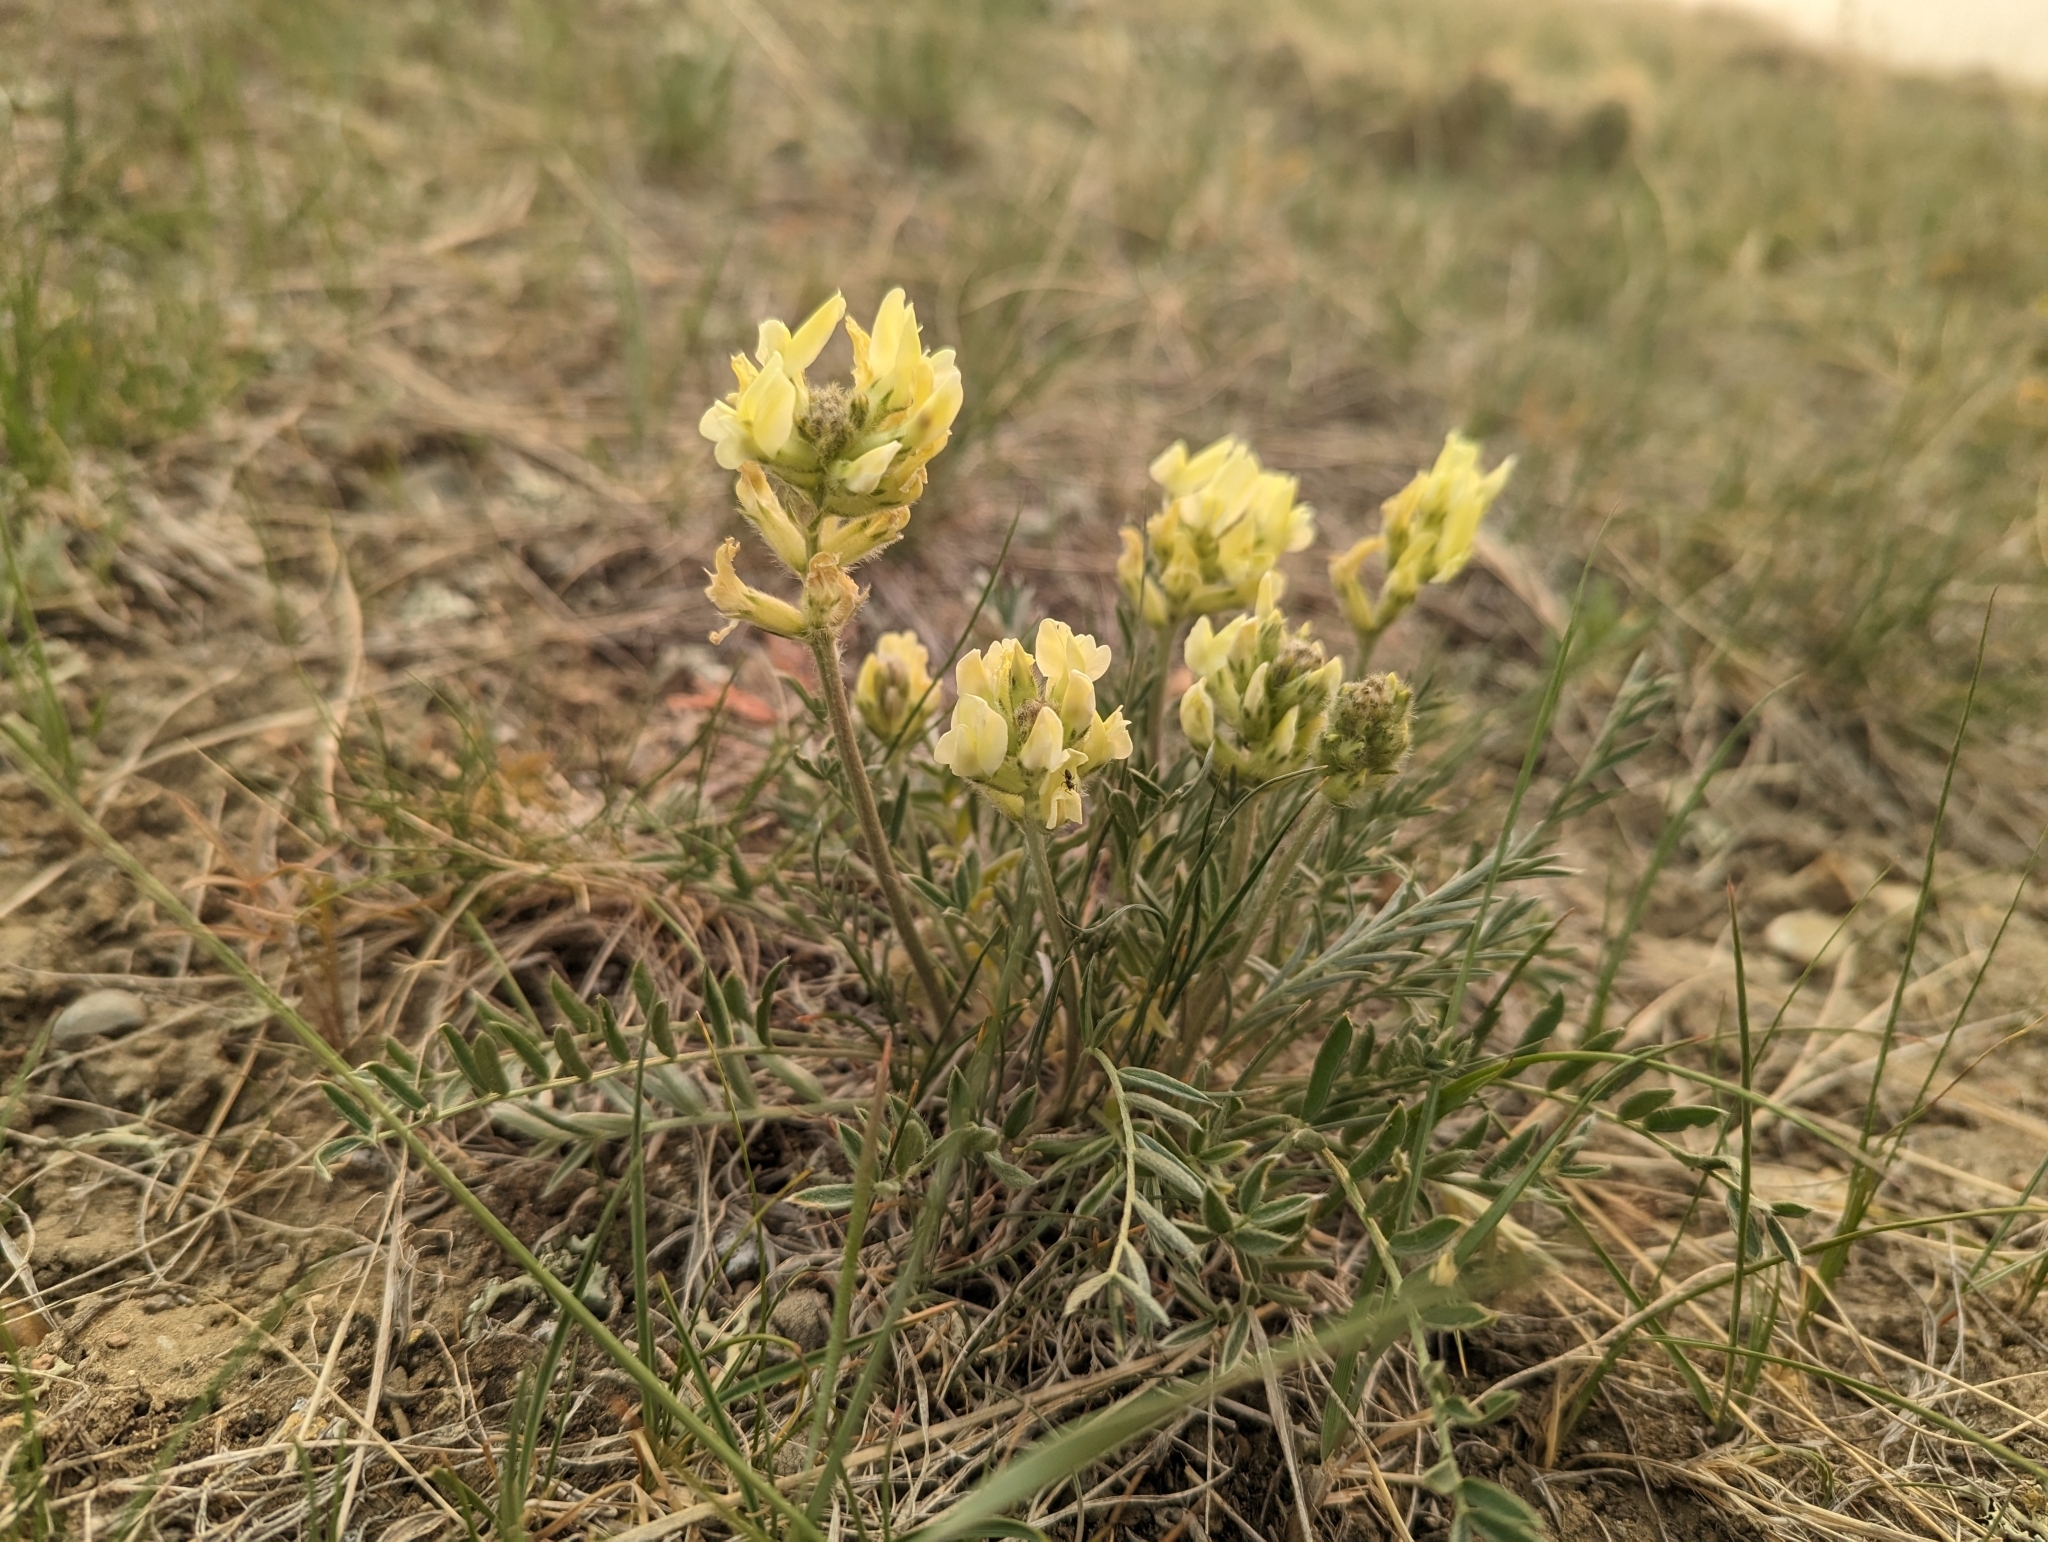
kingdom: Plantae
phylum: Tracheophyta
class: Magnoliopsida
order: Fabales
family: Fabaceae
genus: Oxytropis
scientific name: Oxytropis sericea
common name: Silky locoweed
